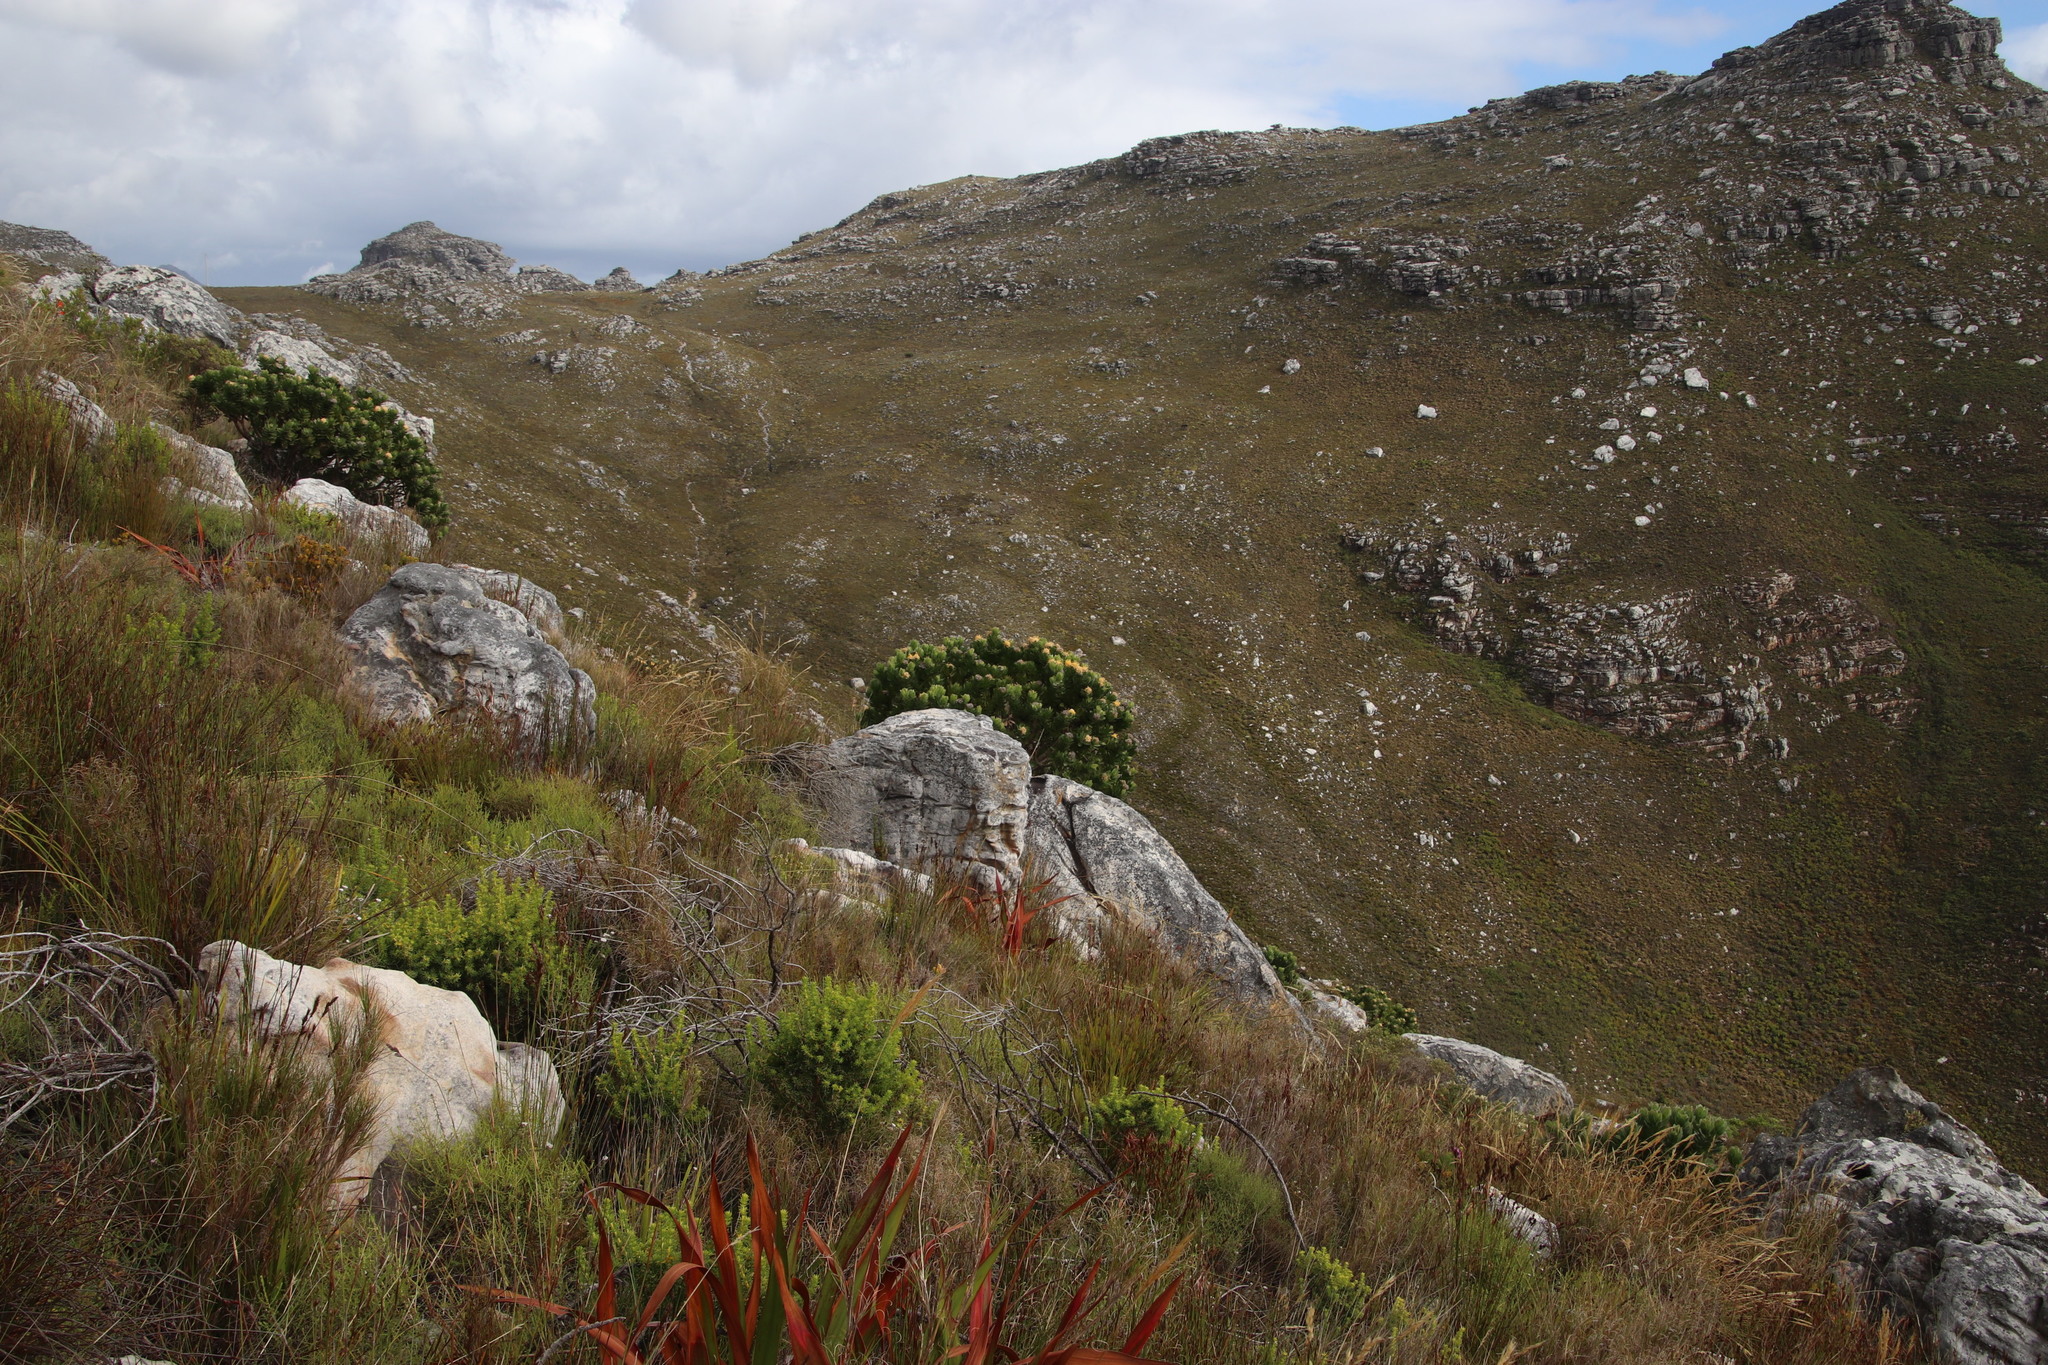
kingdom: Plantae
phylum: Tracheophyta
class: Magnoliopsida
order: Proteales
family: Proteaceae
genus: Leucospermum
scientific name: Leucospermum conocarpodendron
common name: Tree pincushion
